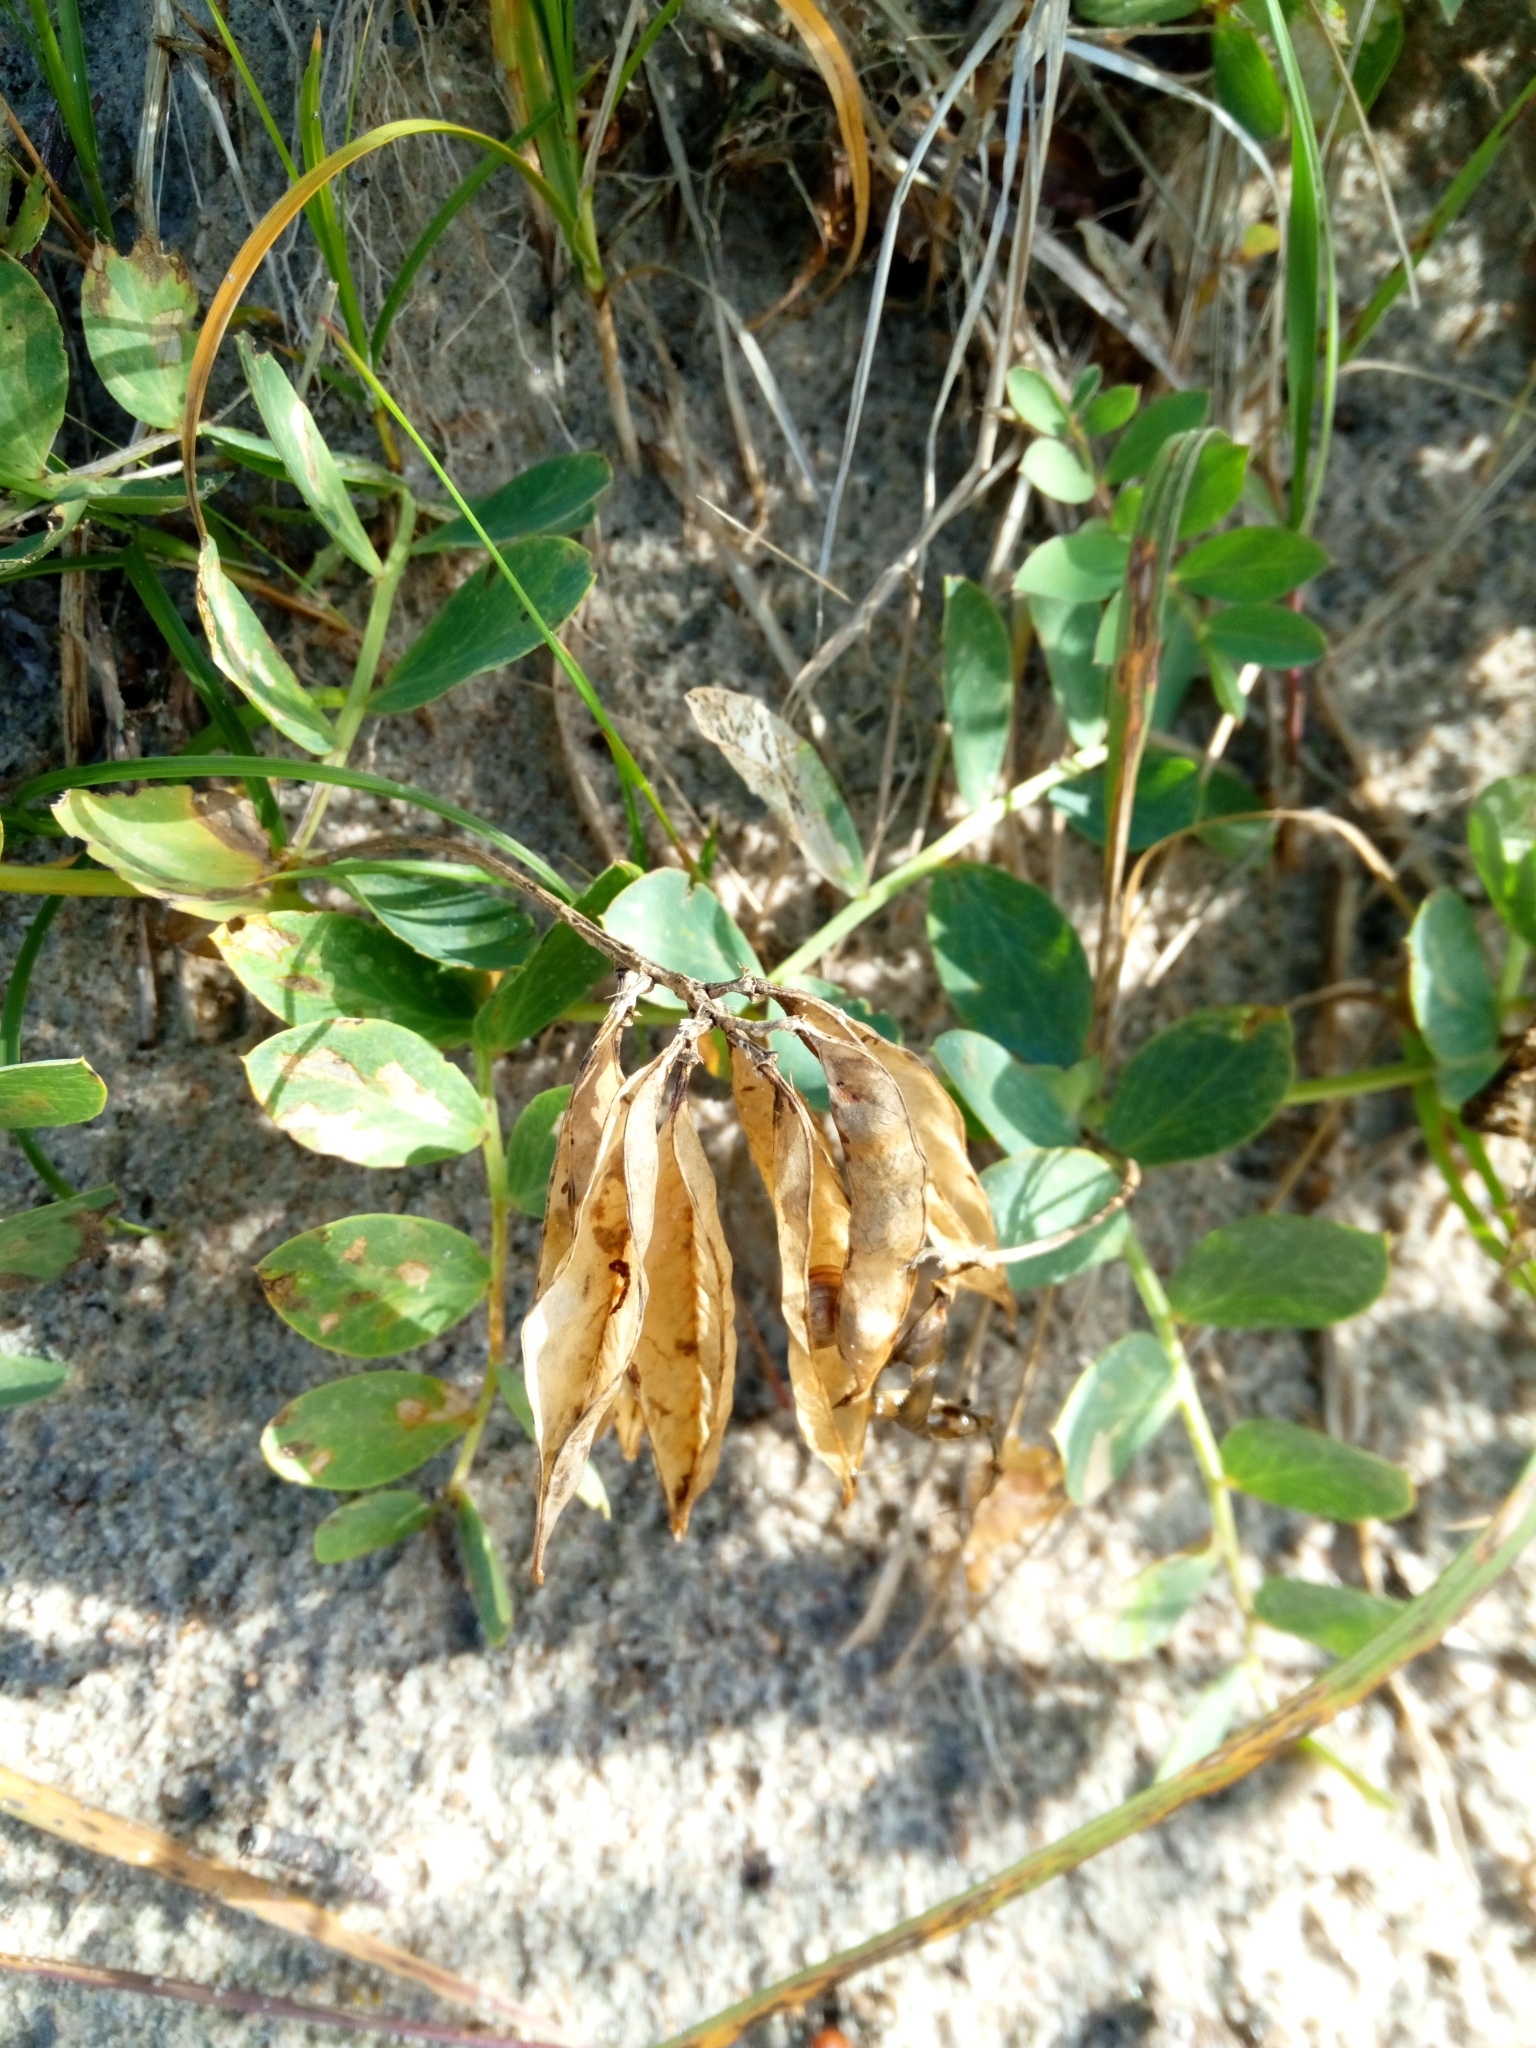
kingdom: Plantae
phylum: Tracheophyta
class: Magnoliopsida
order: Fabales
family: Fabaceae
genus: Lathyrus
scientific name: Lathyrus japonicus
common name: Sea pea
